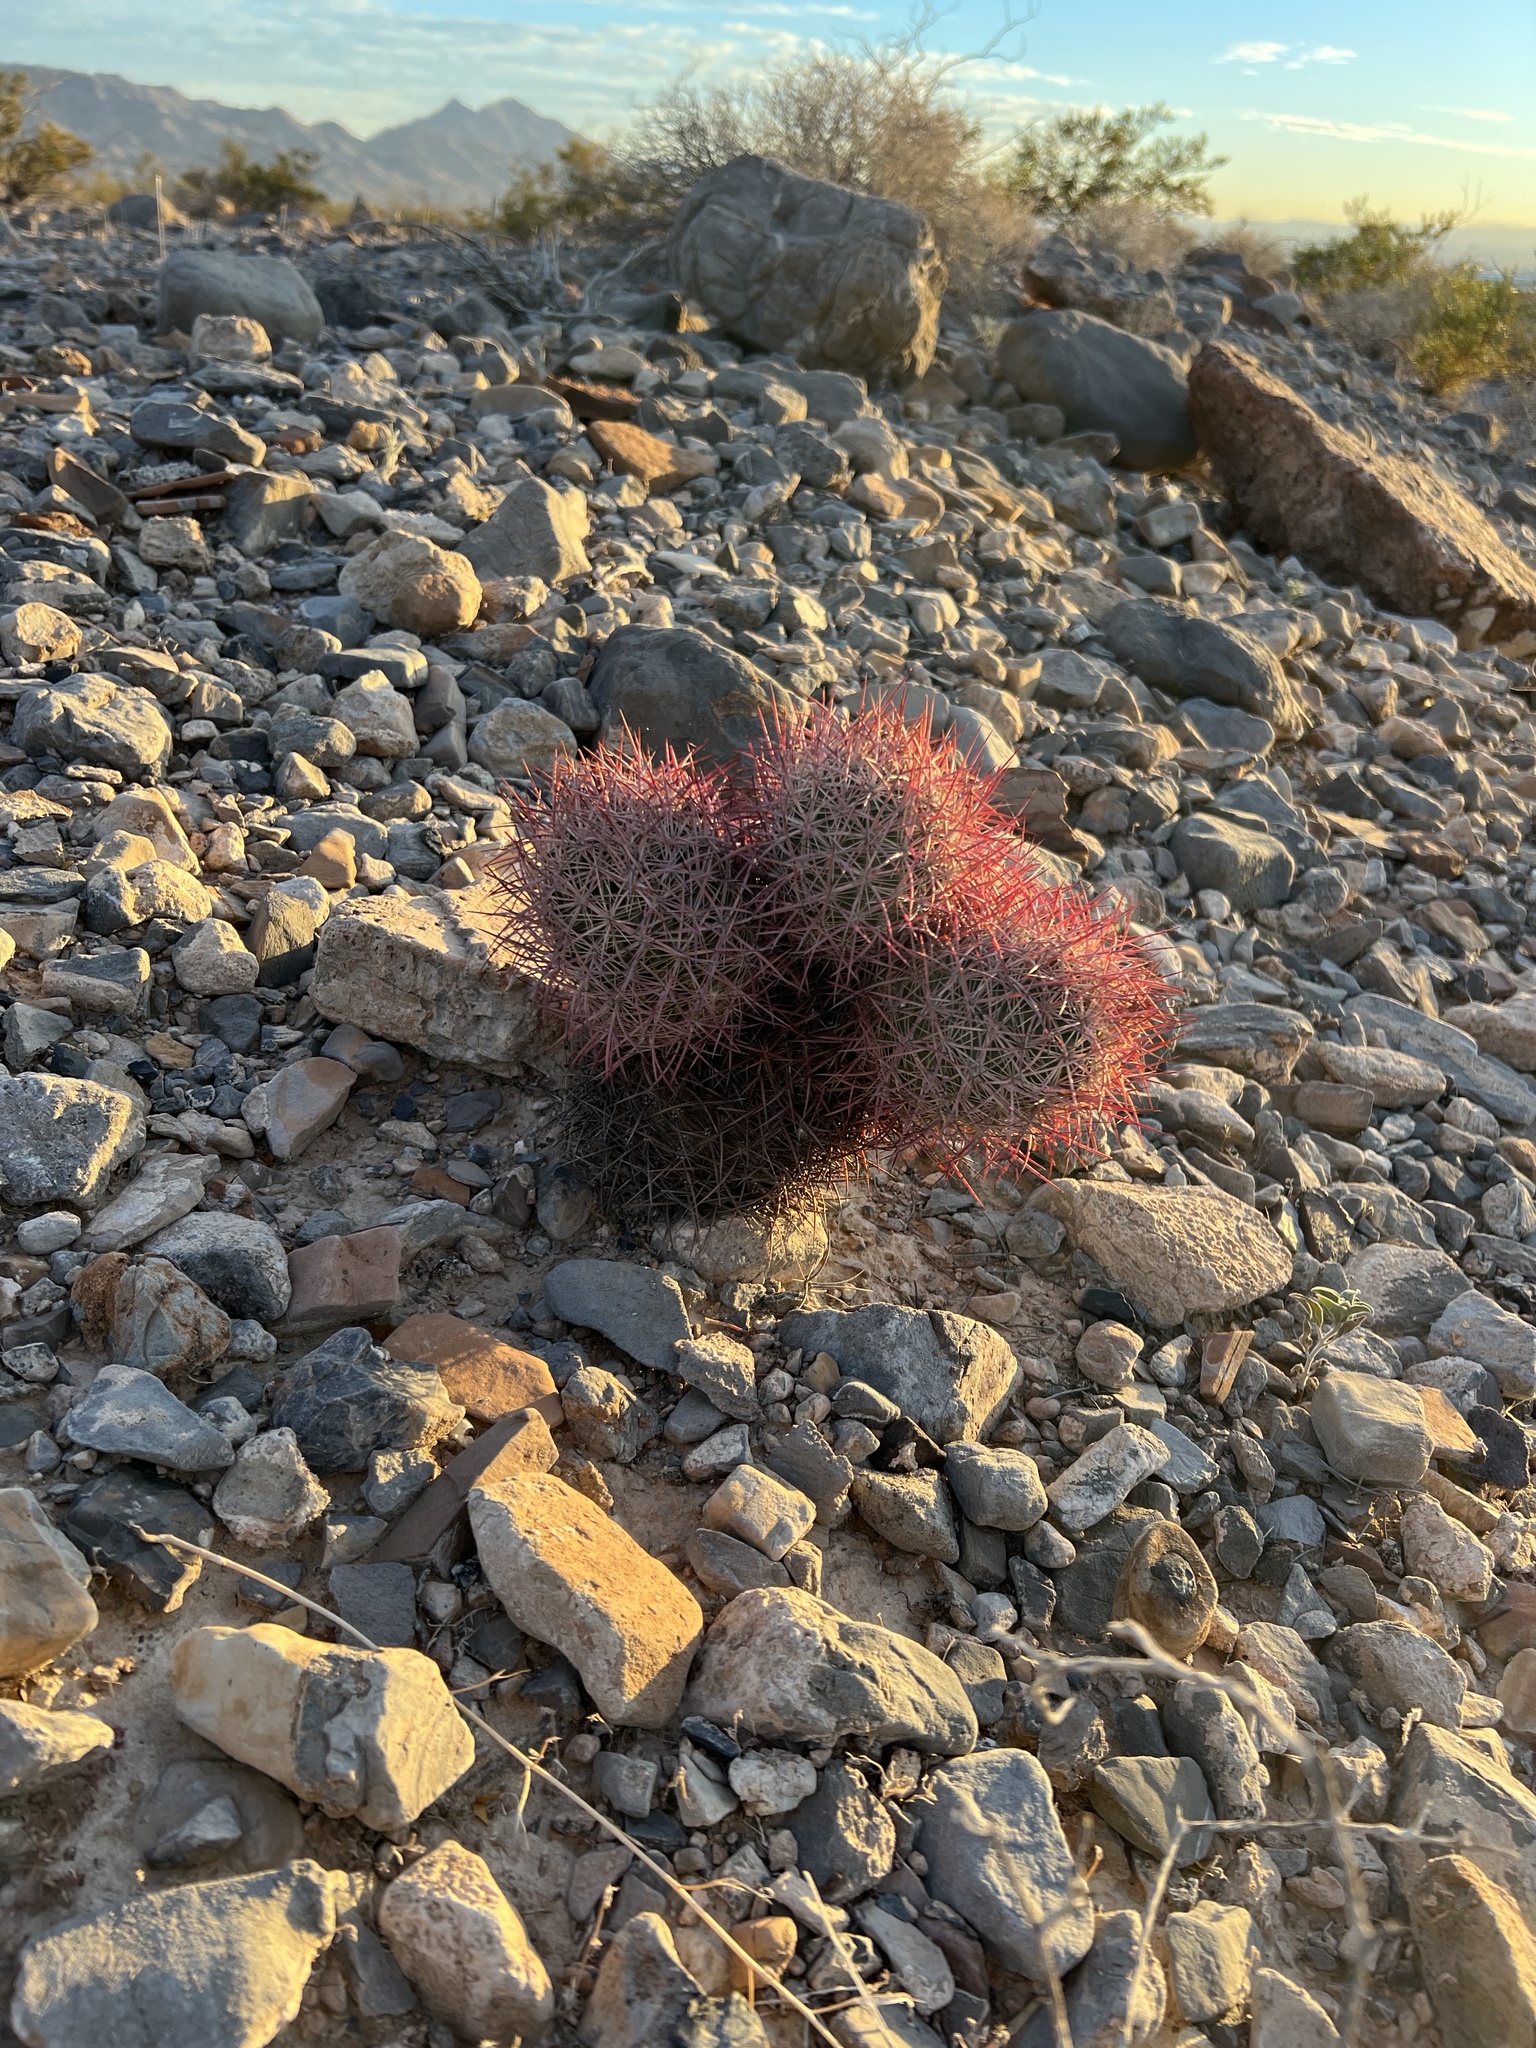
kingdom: Plantae
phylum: Tracheophyta
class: Magnoliopsida
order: Caryophyllales
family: Cactaceae
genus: Sclerocactus
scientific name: Sclerocactus johnsonii
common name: Eight-spine fishhook cactus
